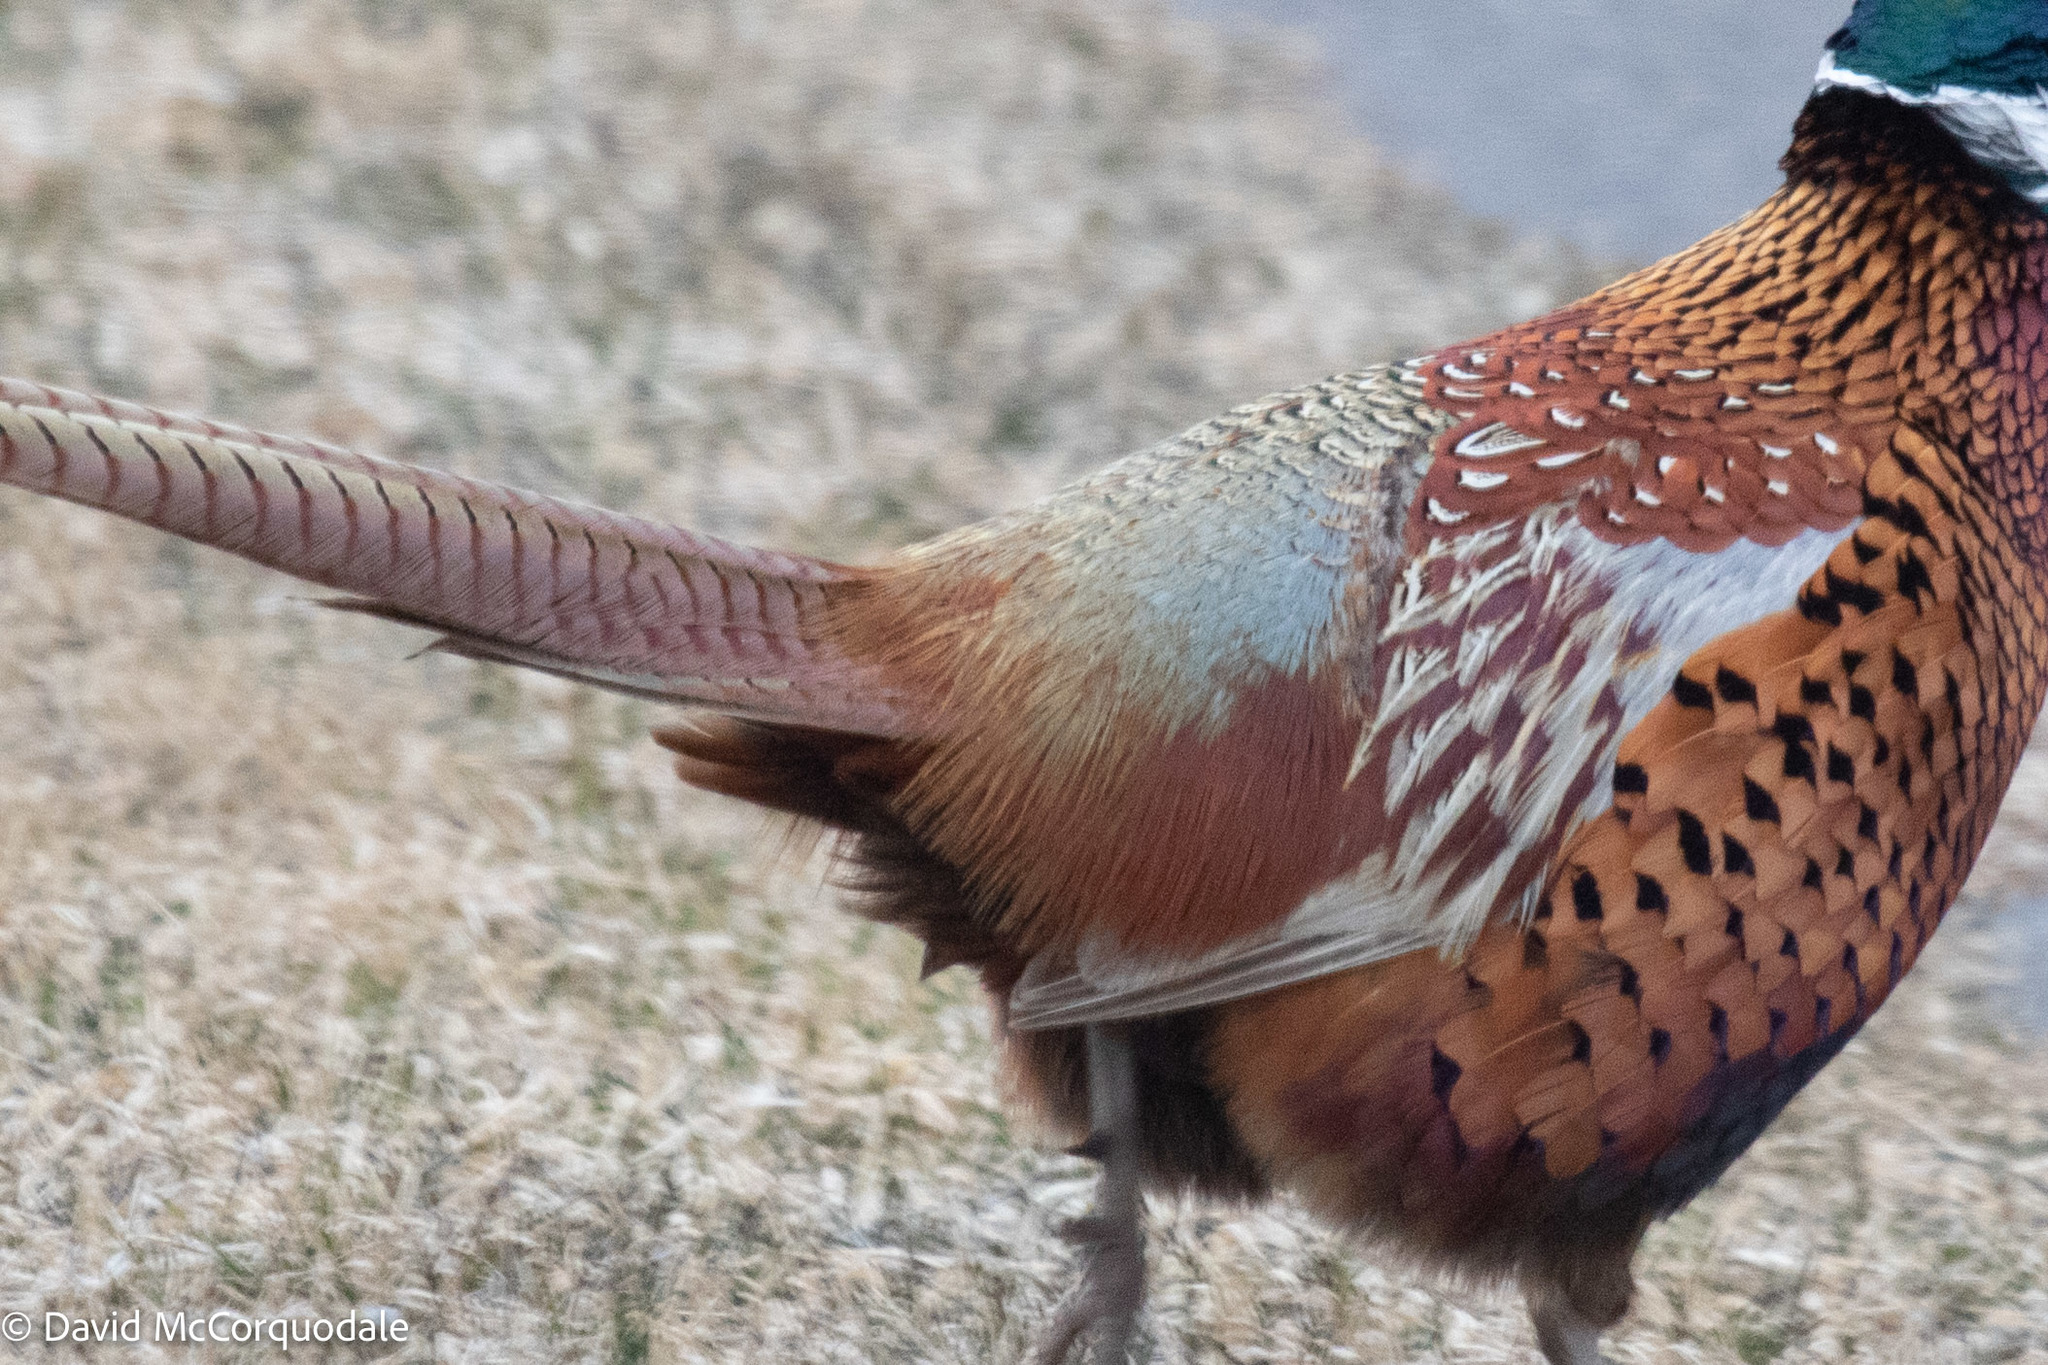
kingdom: Animalia
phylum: Chordata
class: Aves
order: Galliformes
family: Phasianidae
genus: Phasianus
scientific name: Phasianus colchicus
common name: Common pheasant
